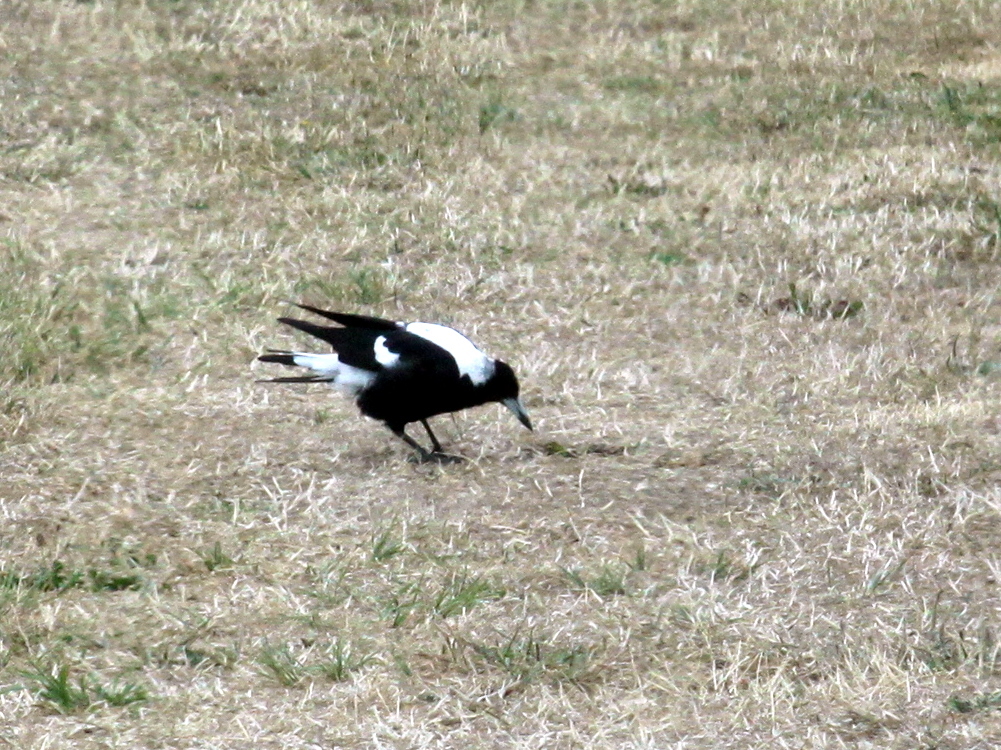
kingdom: Animalia
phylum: Chordata
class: Aves
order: Passeriformes
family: Cracticidae
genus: Gymnorhina
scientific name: Gymnorhina tibicen
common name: Australian magpie
